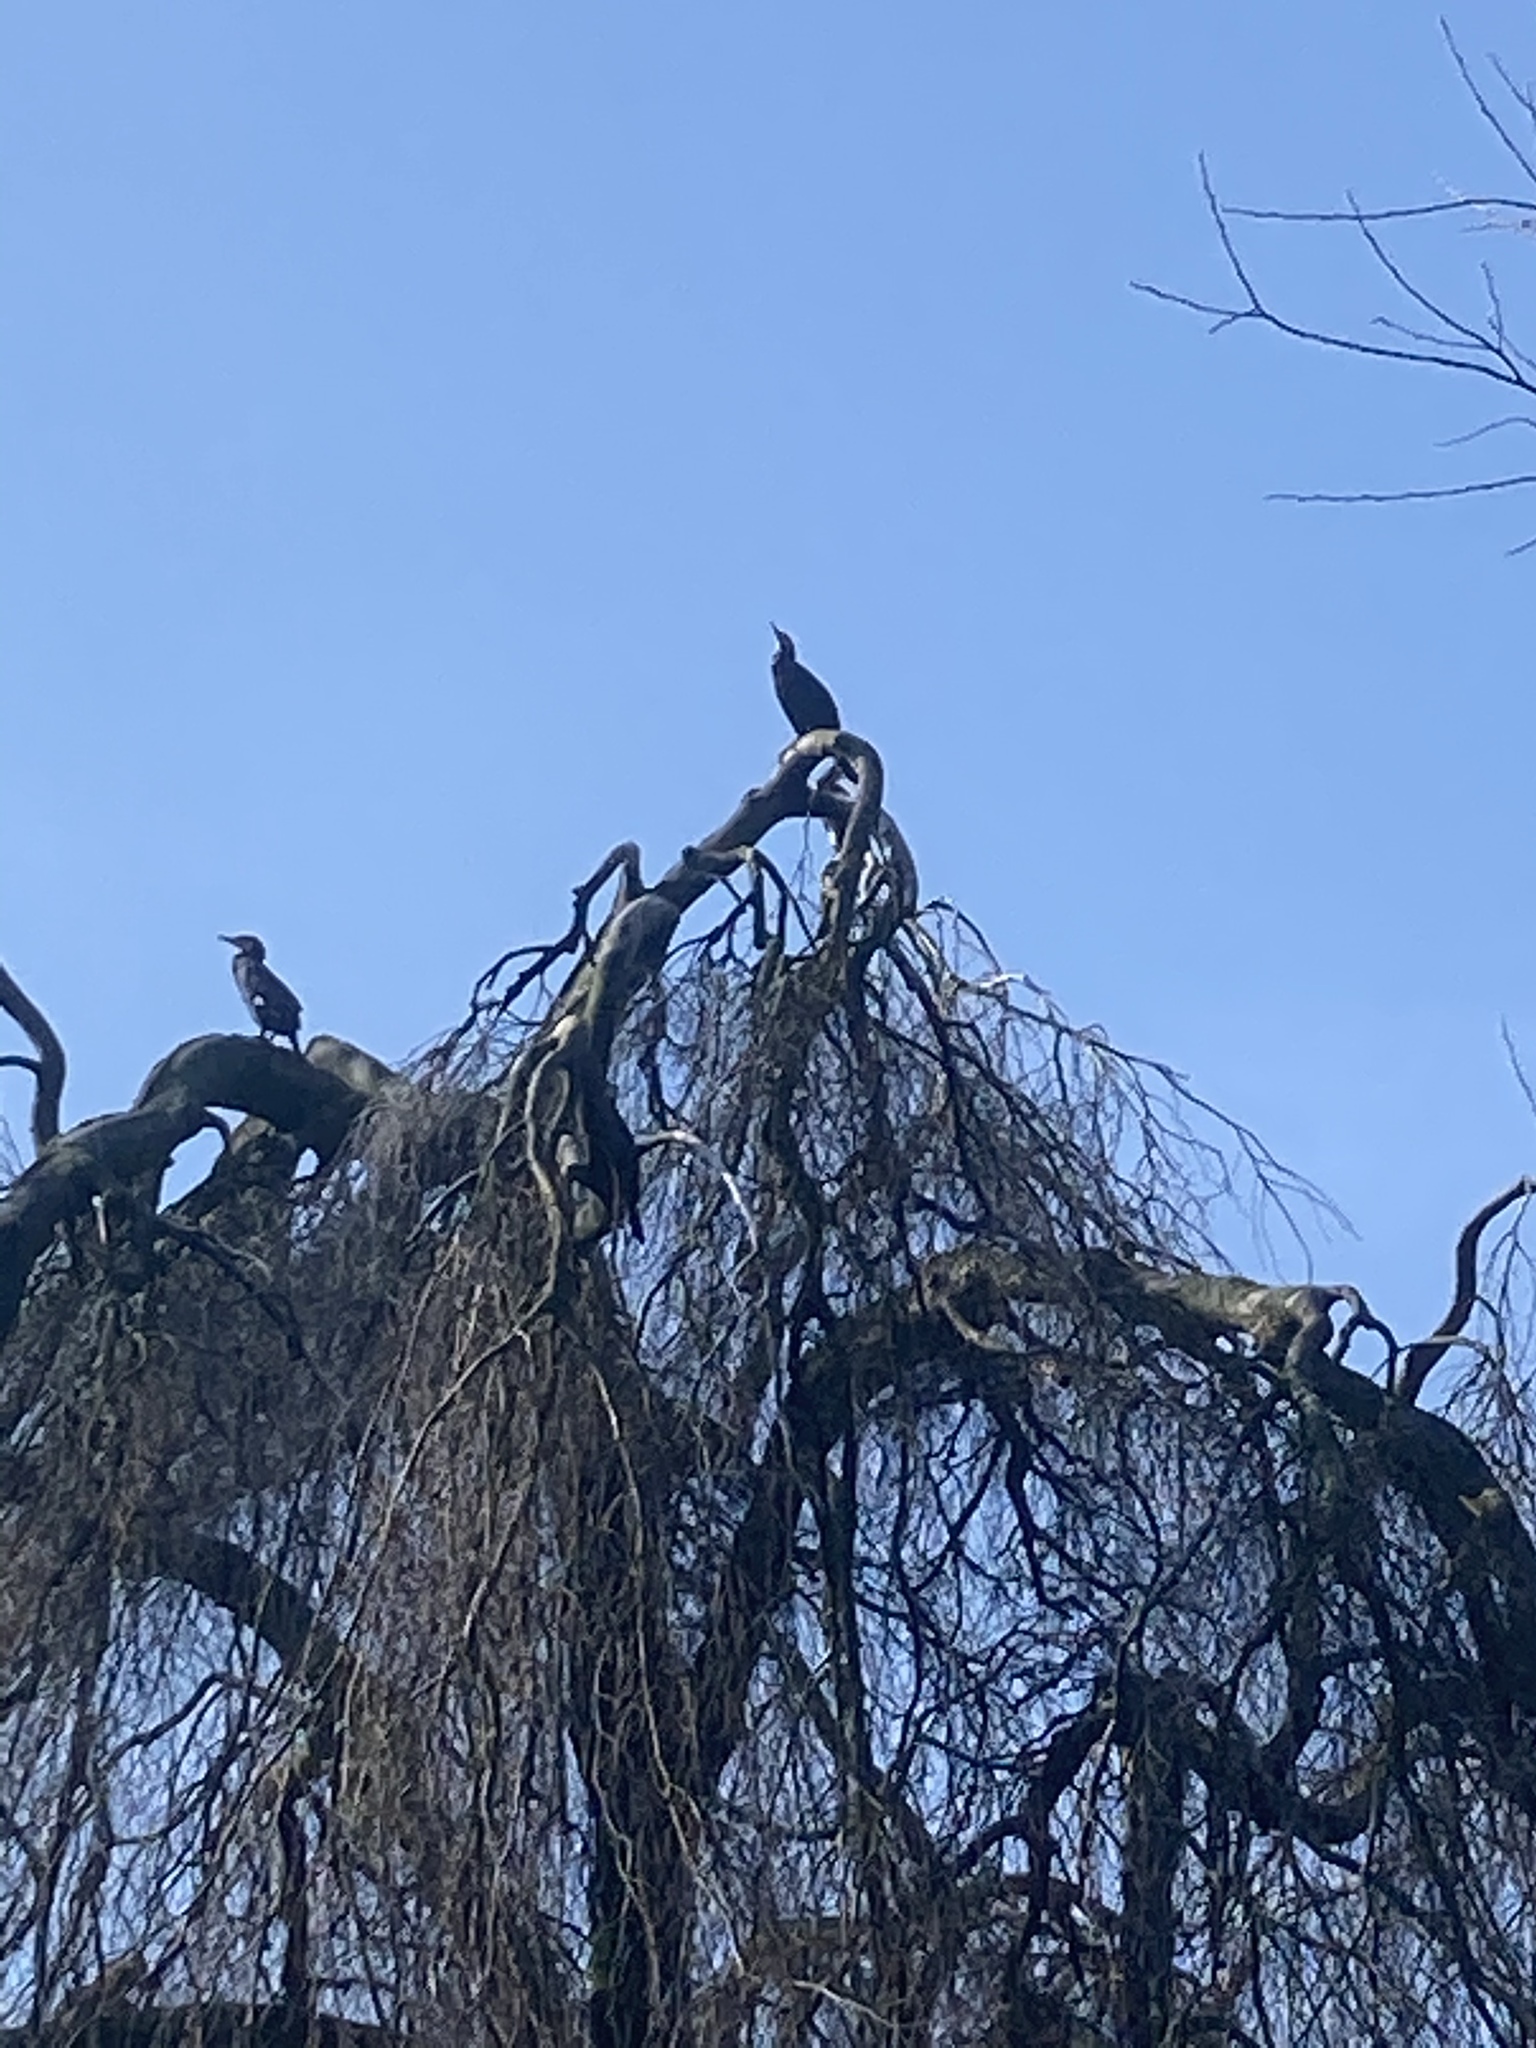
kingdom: Animalia
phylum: Chordata
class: Aves
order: Suliformes
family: Phalacrocoracidae
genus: Phalacrocorax
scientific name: Phalacrocorax carbo
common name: Great cormorant
